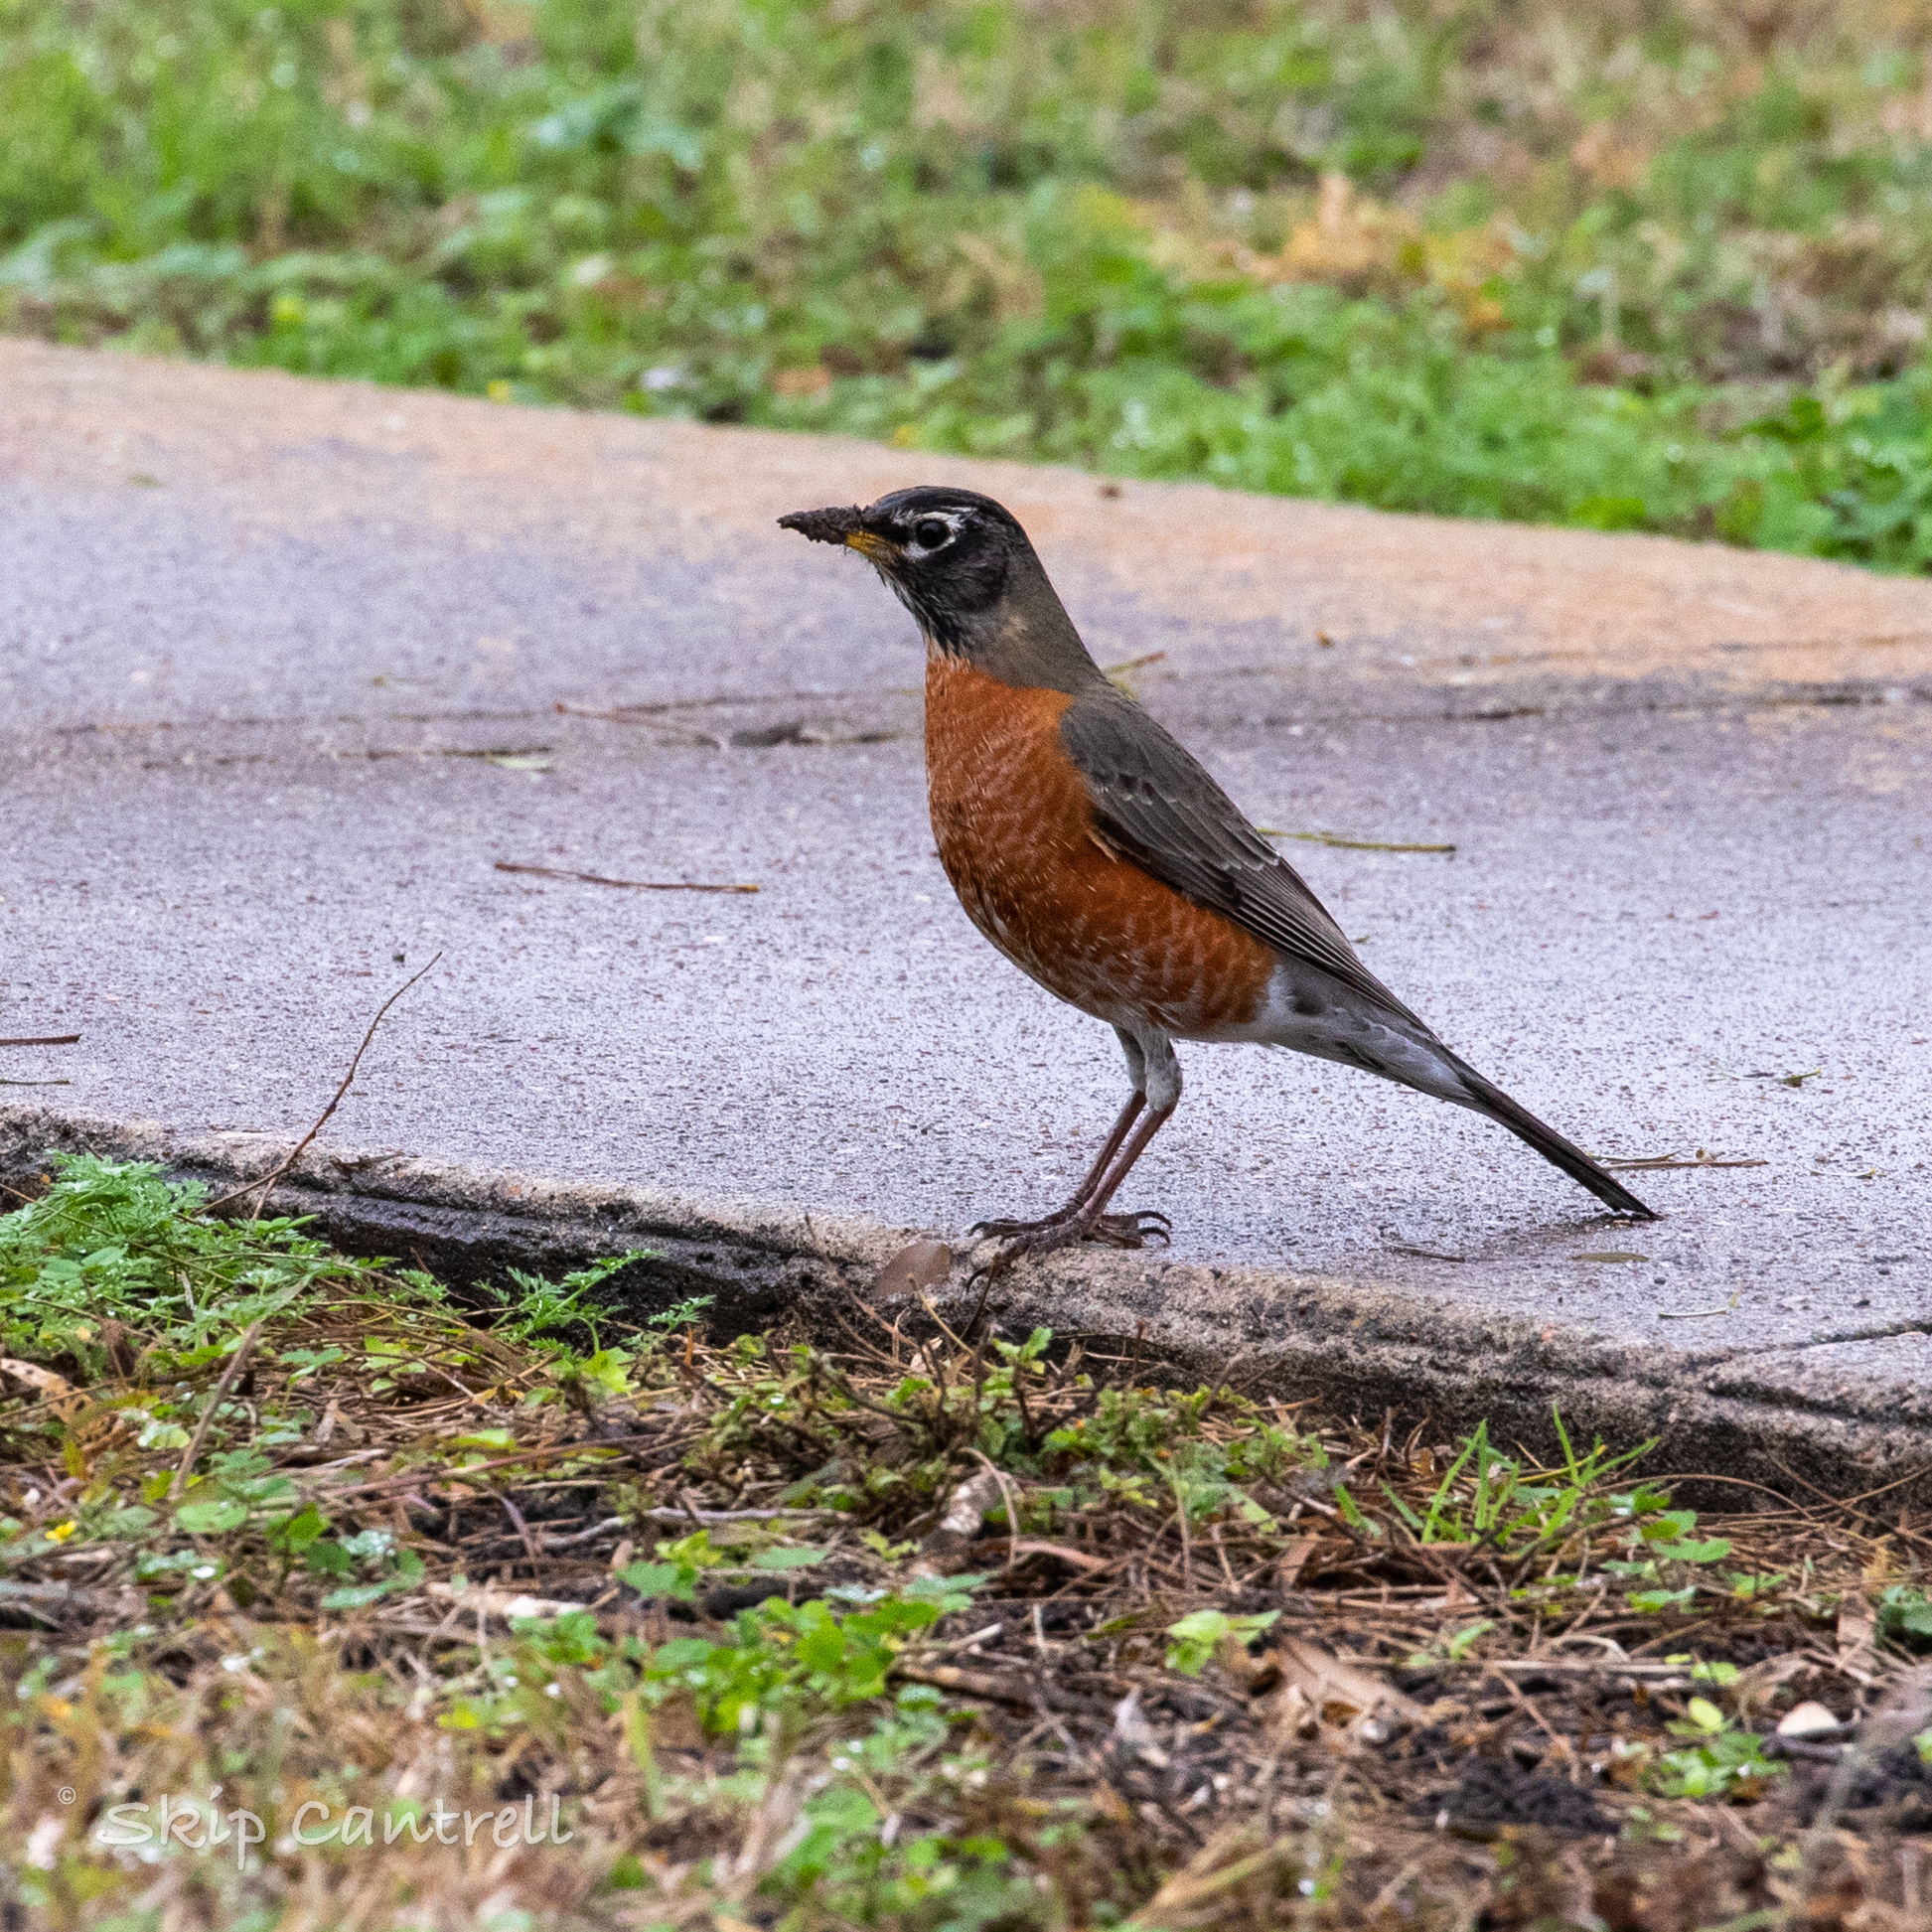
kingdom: Animalia
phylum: Chordata
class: Aves
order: Passeriformes
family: Turdidae
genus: Turdus
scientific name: Turdus migratorius
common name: American robin
